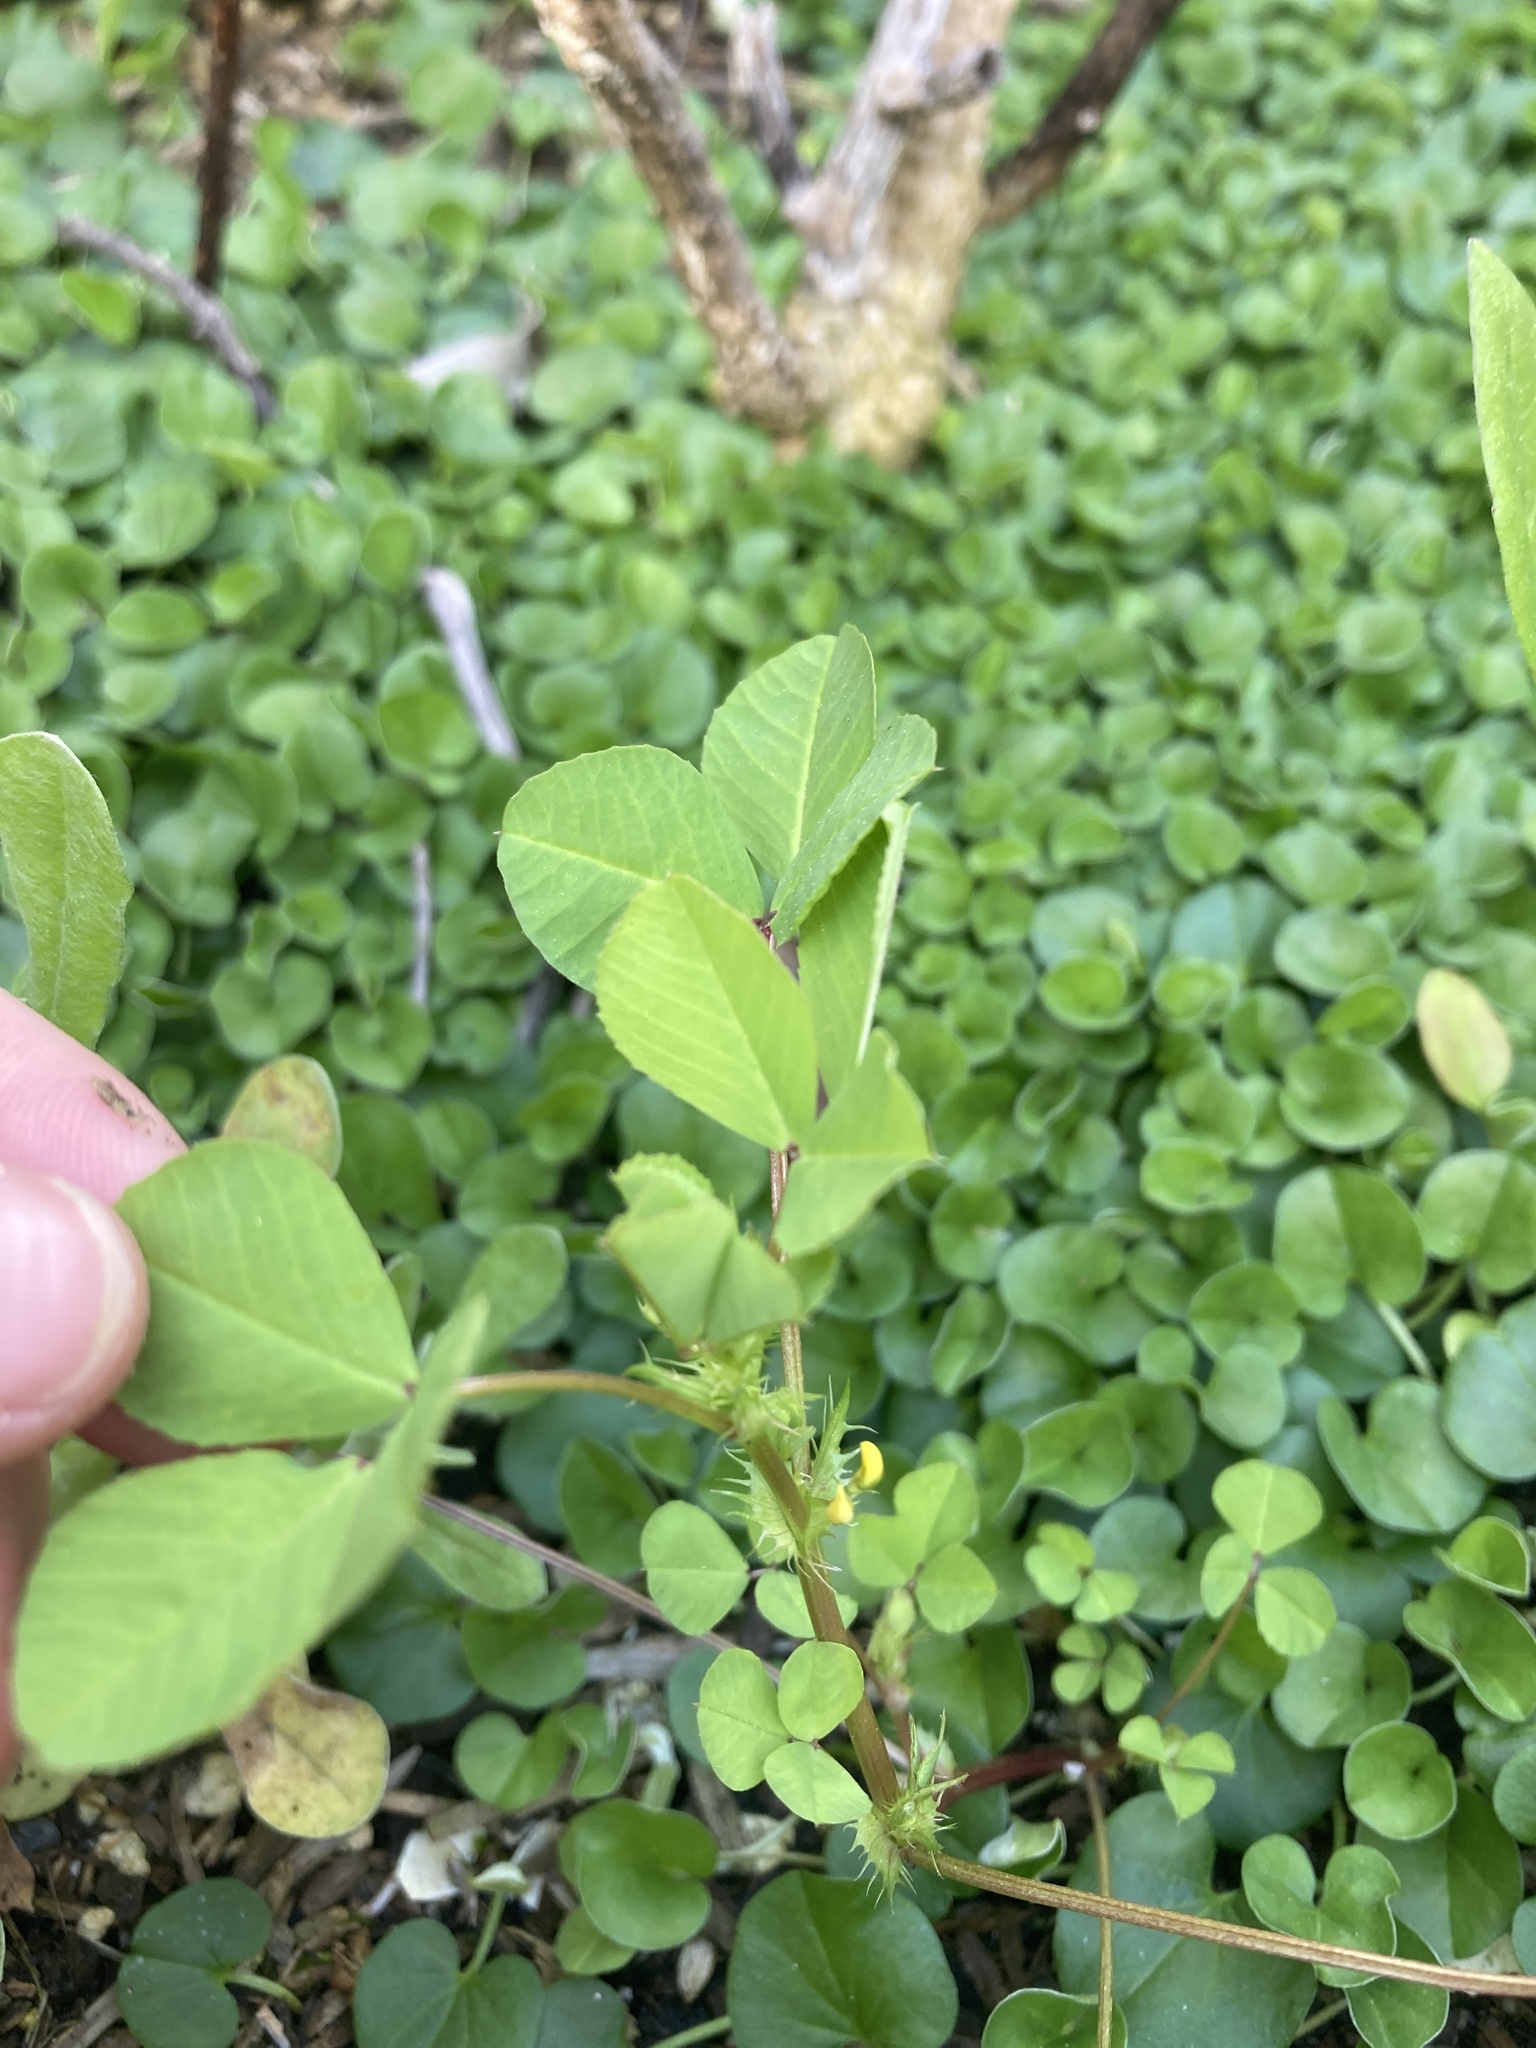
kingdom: Plantae
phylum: Tracheophyta
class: Magnoliopsida
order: Fabales
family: Fabaceae
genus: Medicago
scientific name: Medicago polymorpha
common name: Burclover
